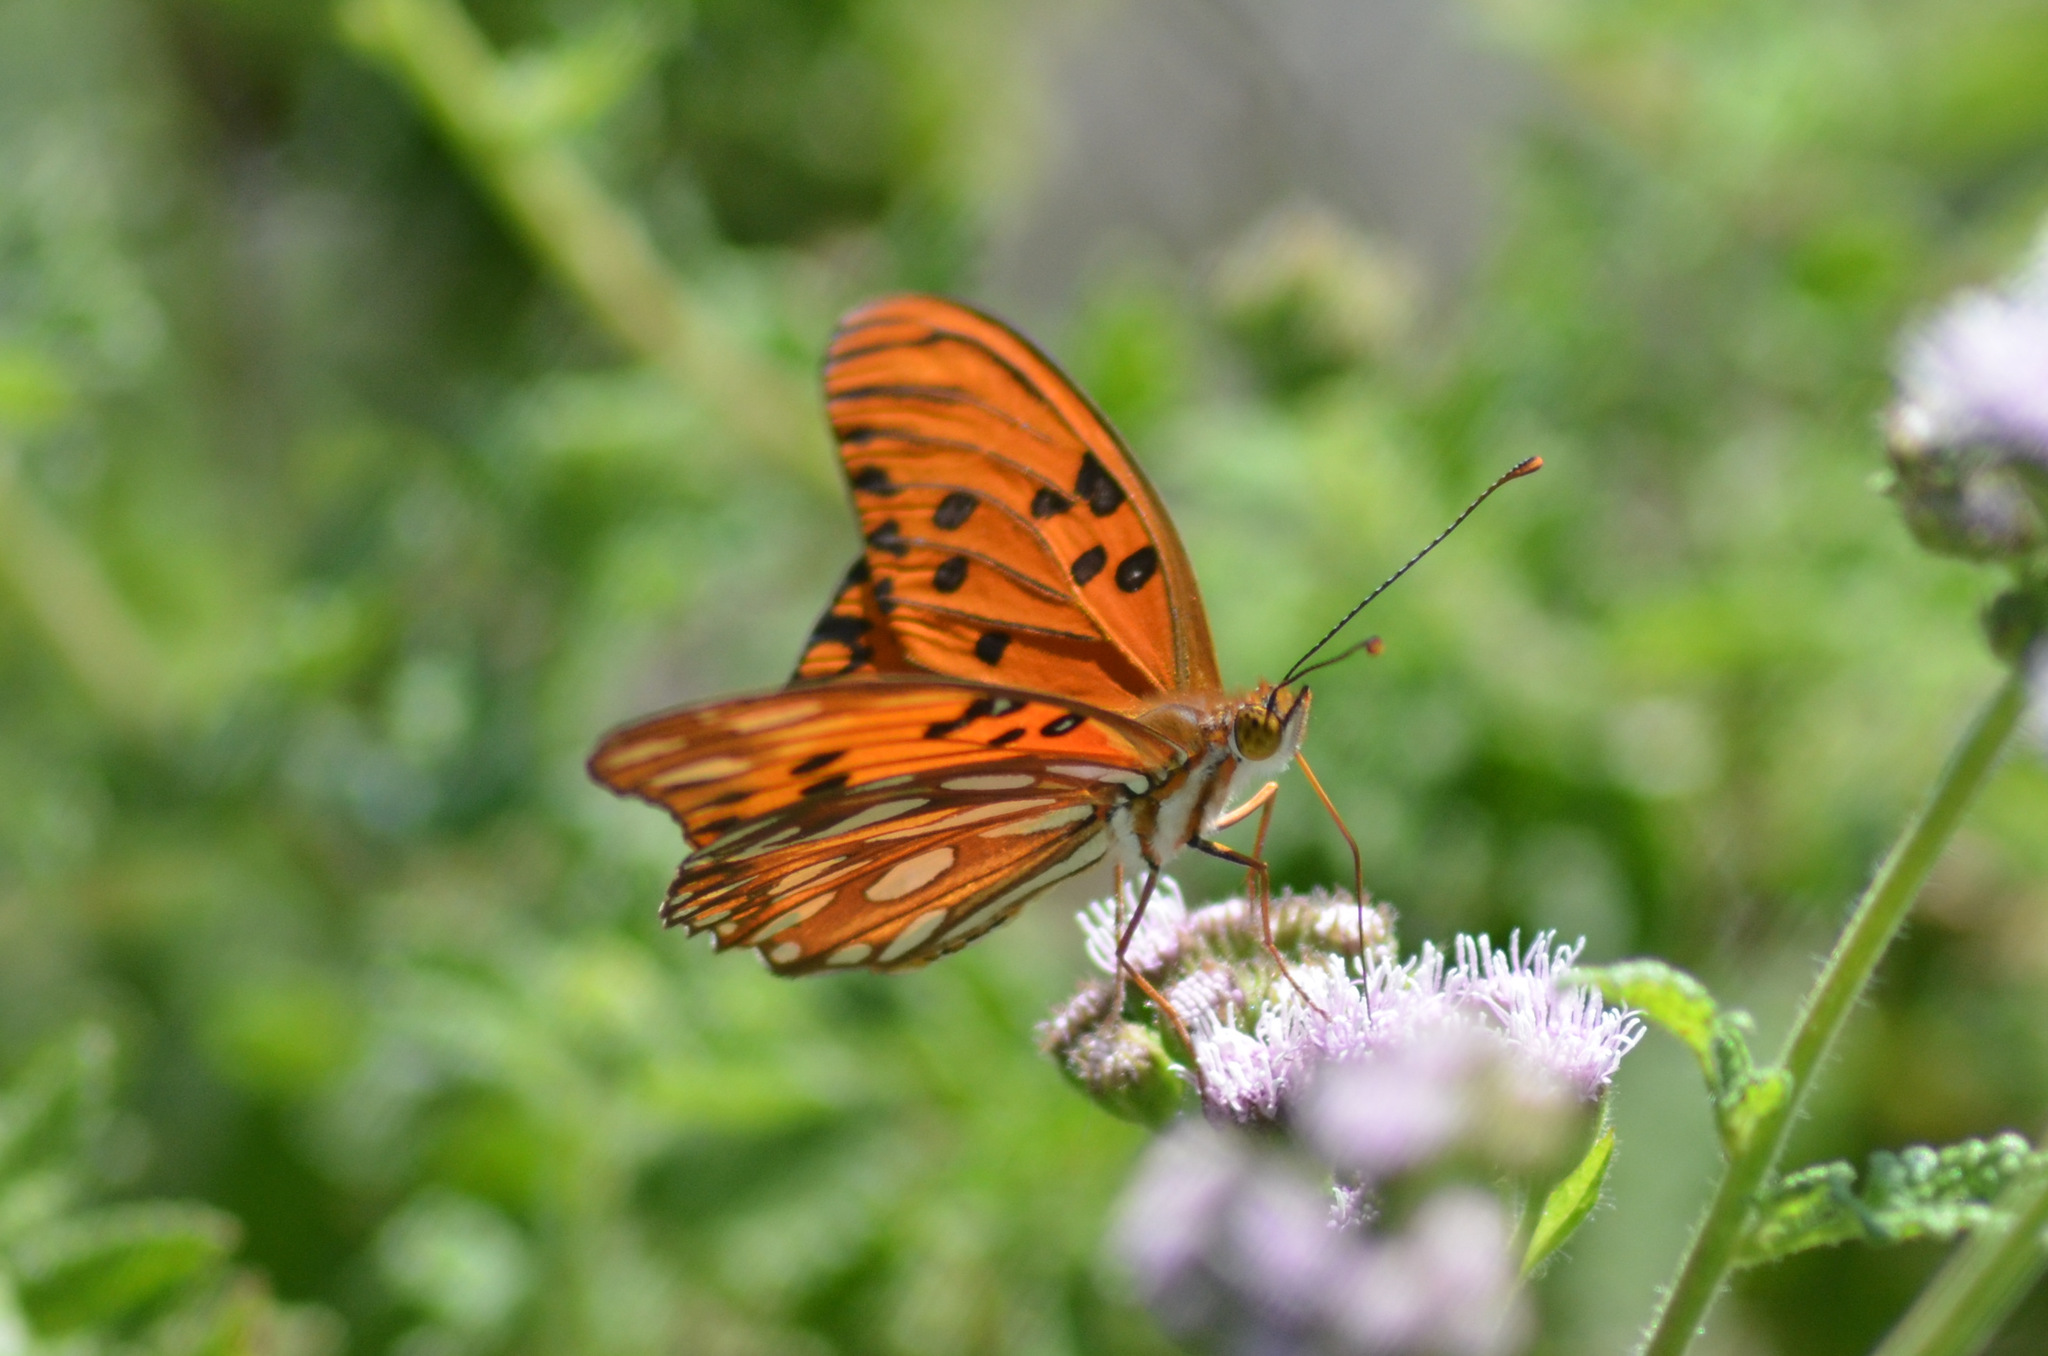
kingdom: Animalia
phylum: Arthropoda
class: Insecta
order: Lepidoptera
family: Nymphalidae
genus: Dione
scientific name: Dione vanillae
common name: Gulf fritillary
